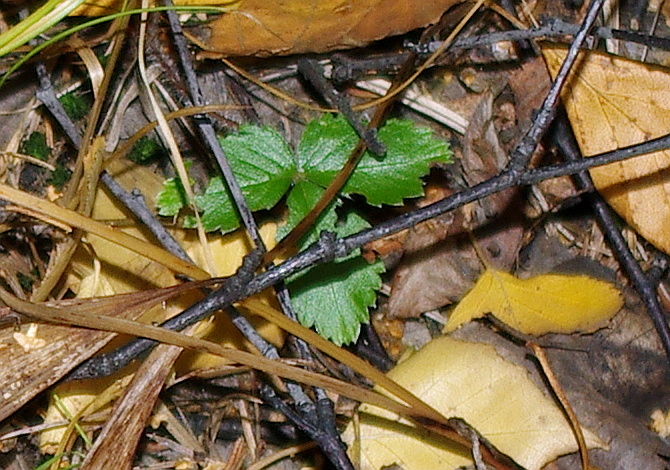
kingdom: Plantae
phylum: Tracheophyta
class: Magnoliopsida
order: Rosales
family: Rosaceae
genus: Fragaria
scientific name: Fragaria vesca
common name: Wild strawberry
